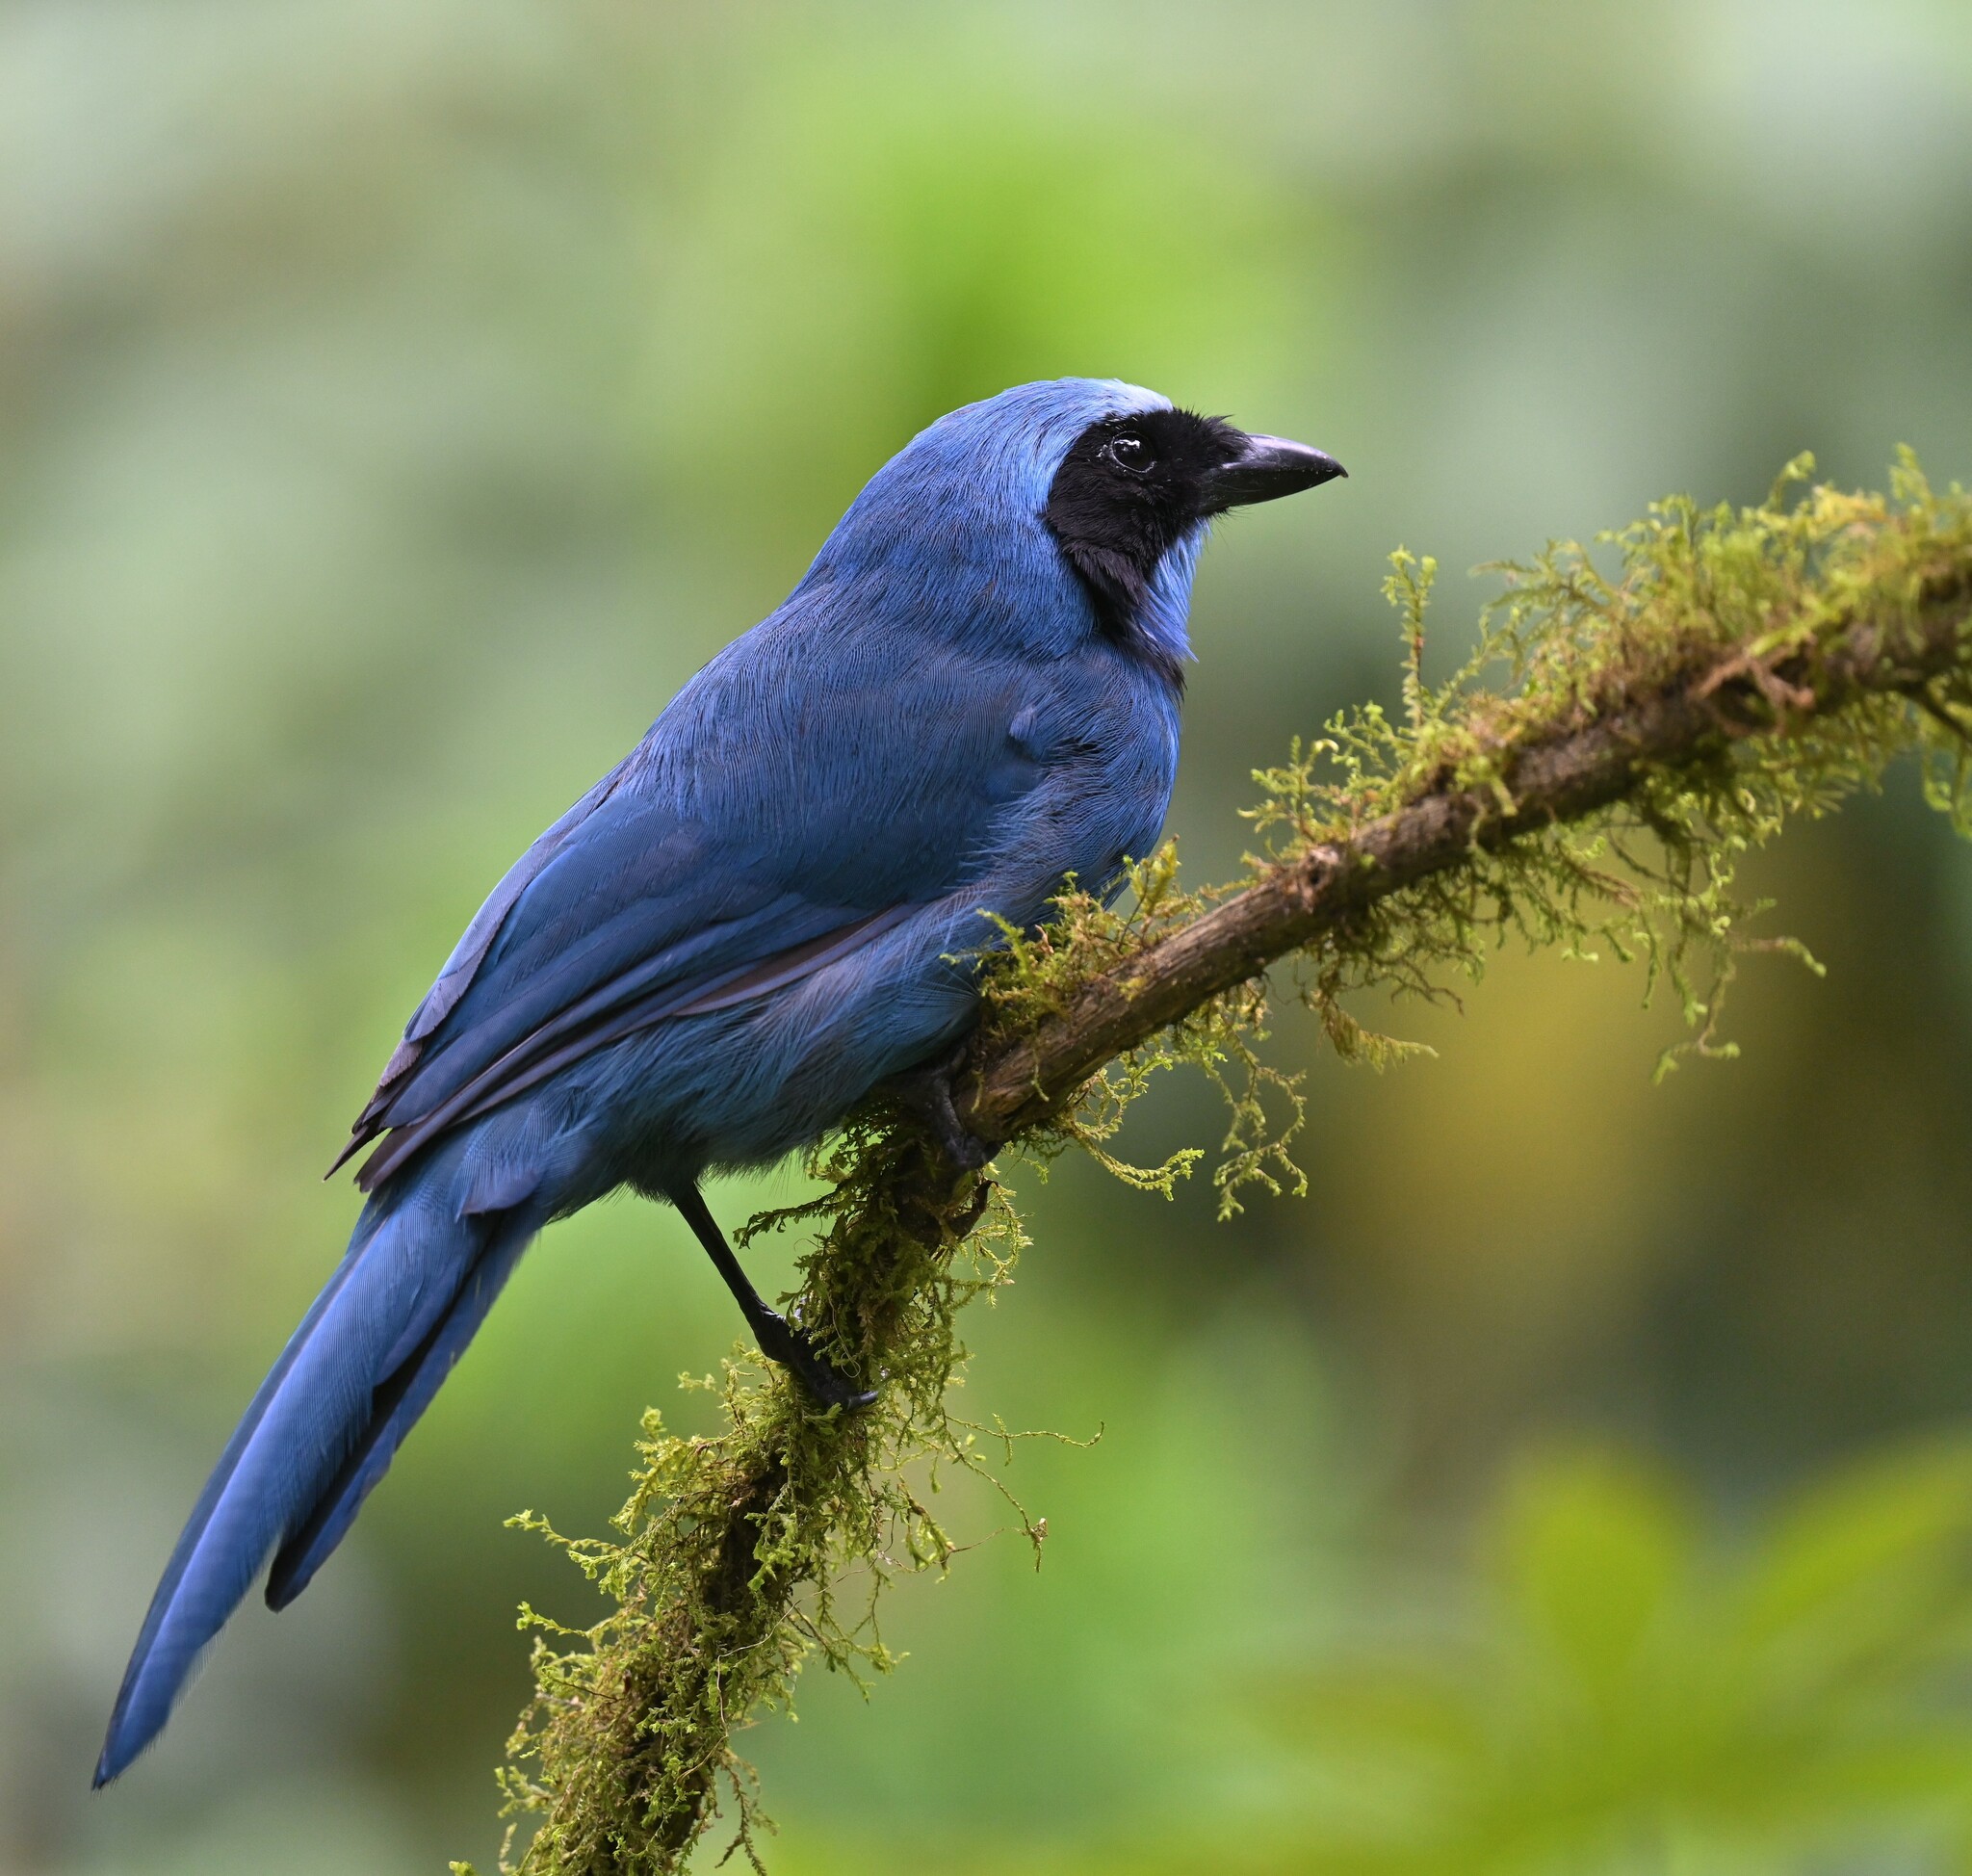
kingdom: Animalia
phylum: Chordata
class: Aves
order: Passeriformes
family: Corvidae
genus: Cyanolyca
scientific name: Cyanolyca turcosa
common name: Turquoise jay
